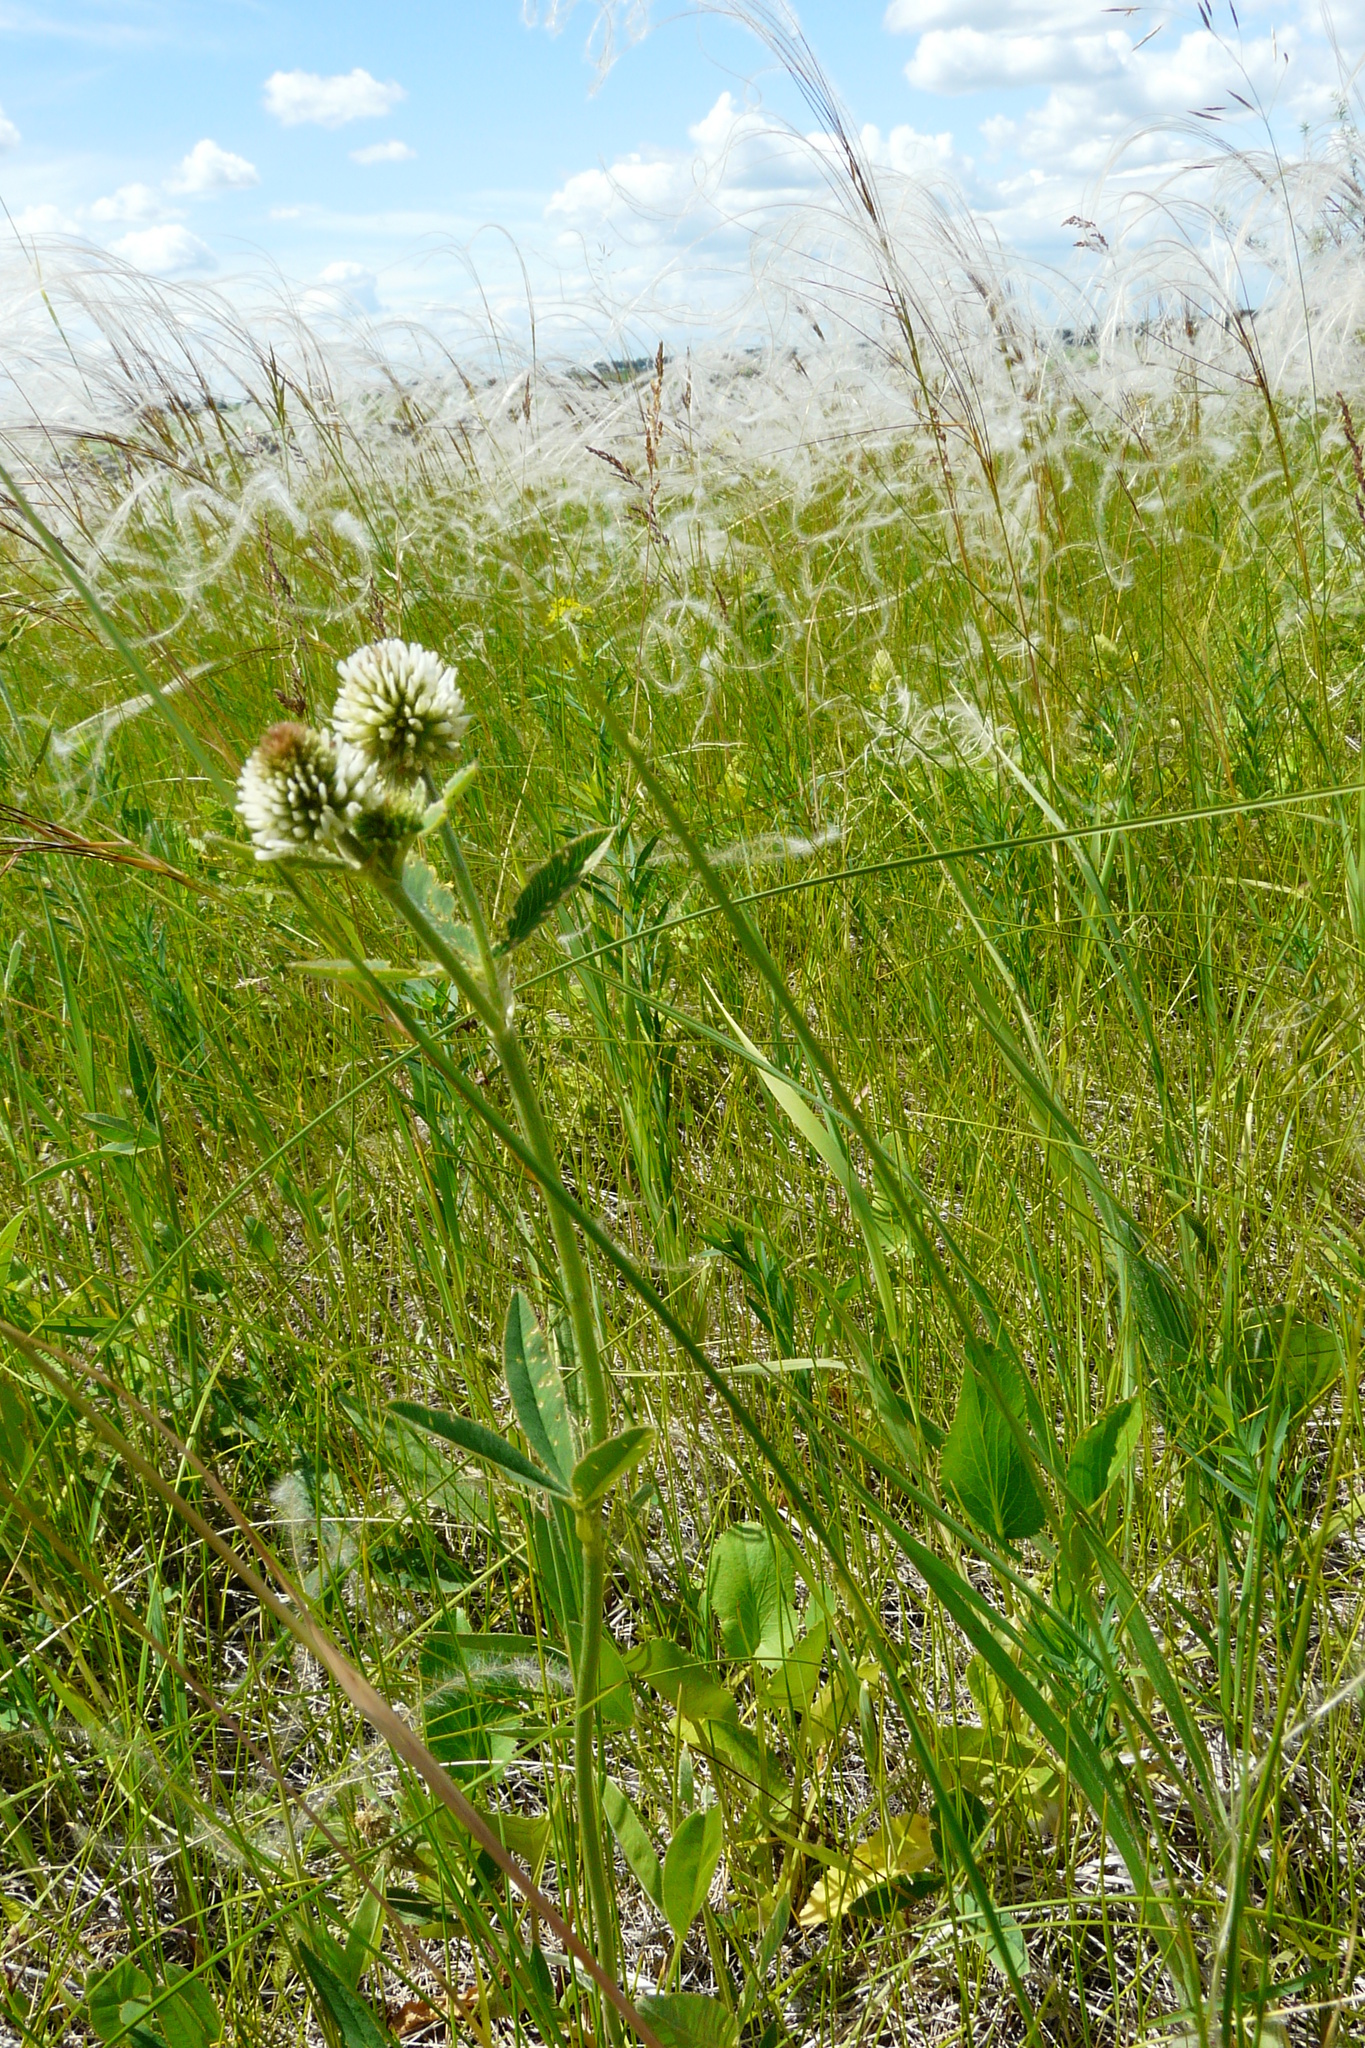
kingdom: Plantae
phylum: Tracheophyta
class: Magnoliopsida
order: Fabales
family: Fabaceae
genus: Trifolium
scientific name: Trifolium montanum
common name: Mountain clover
